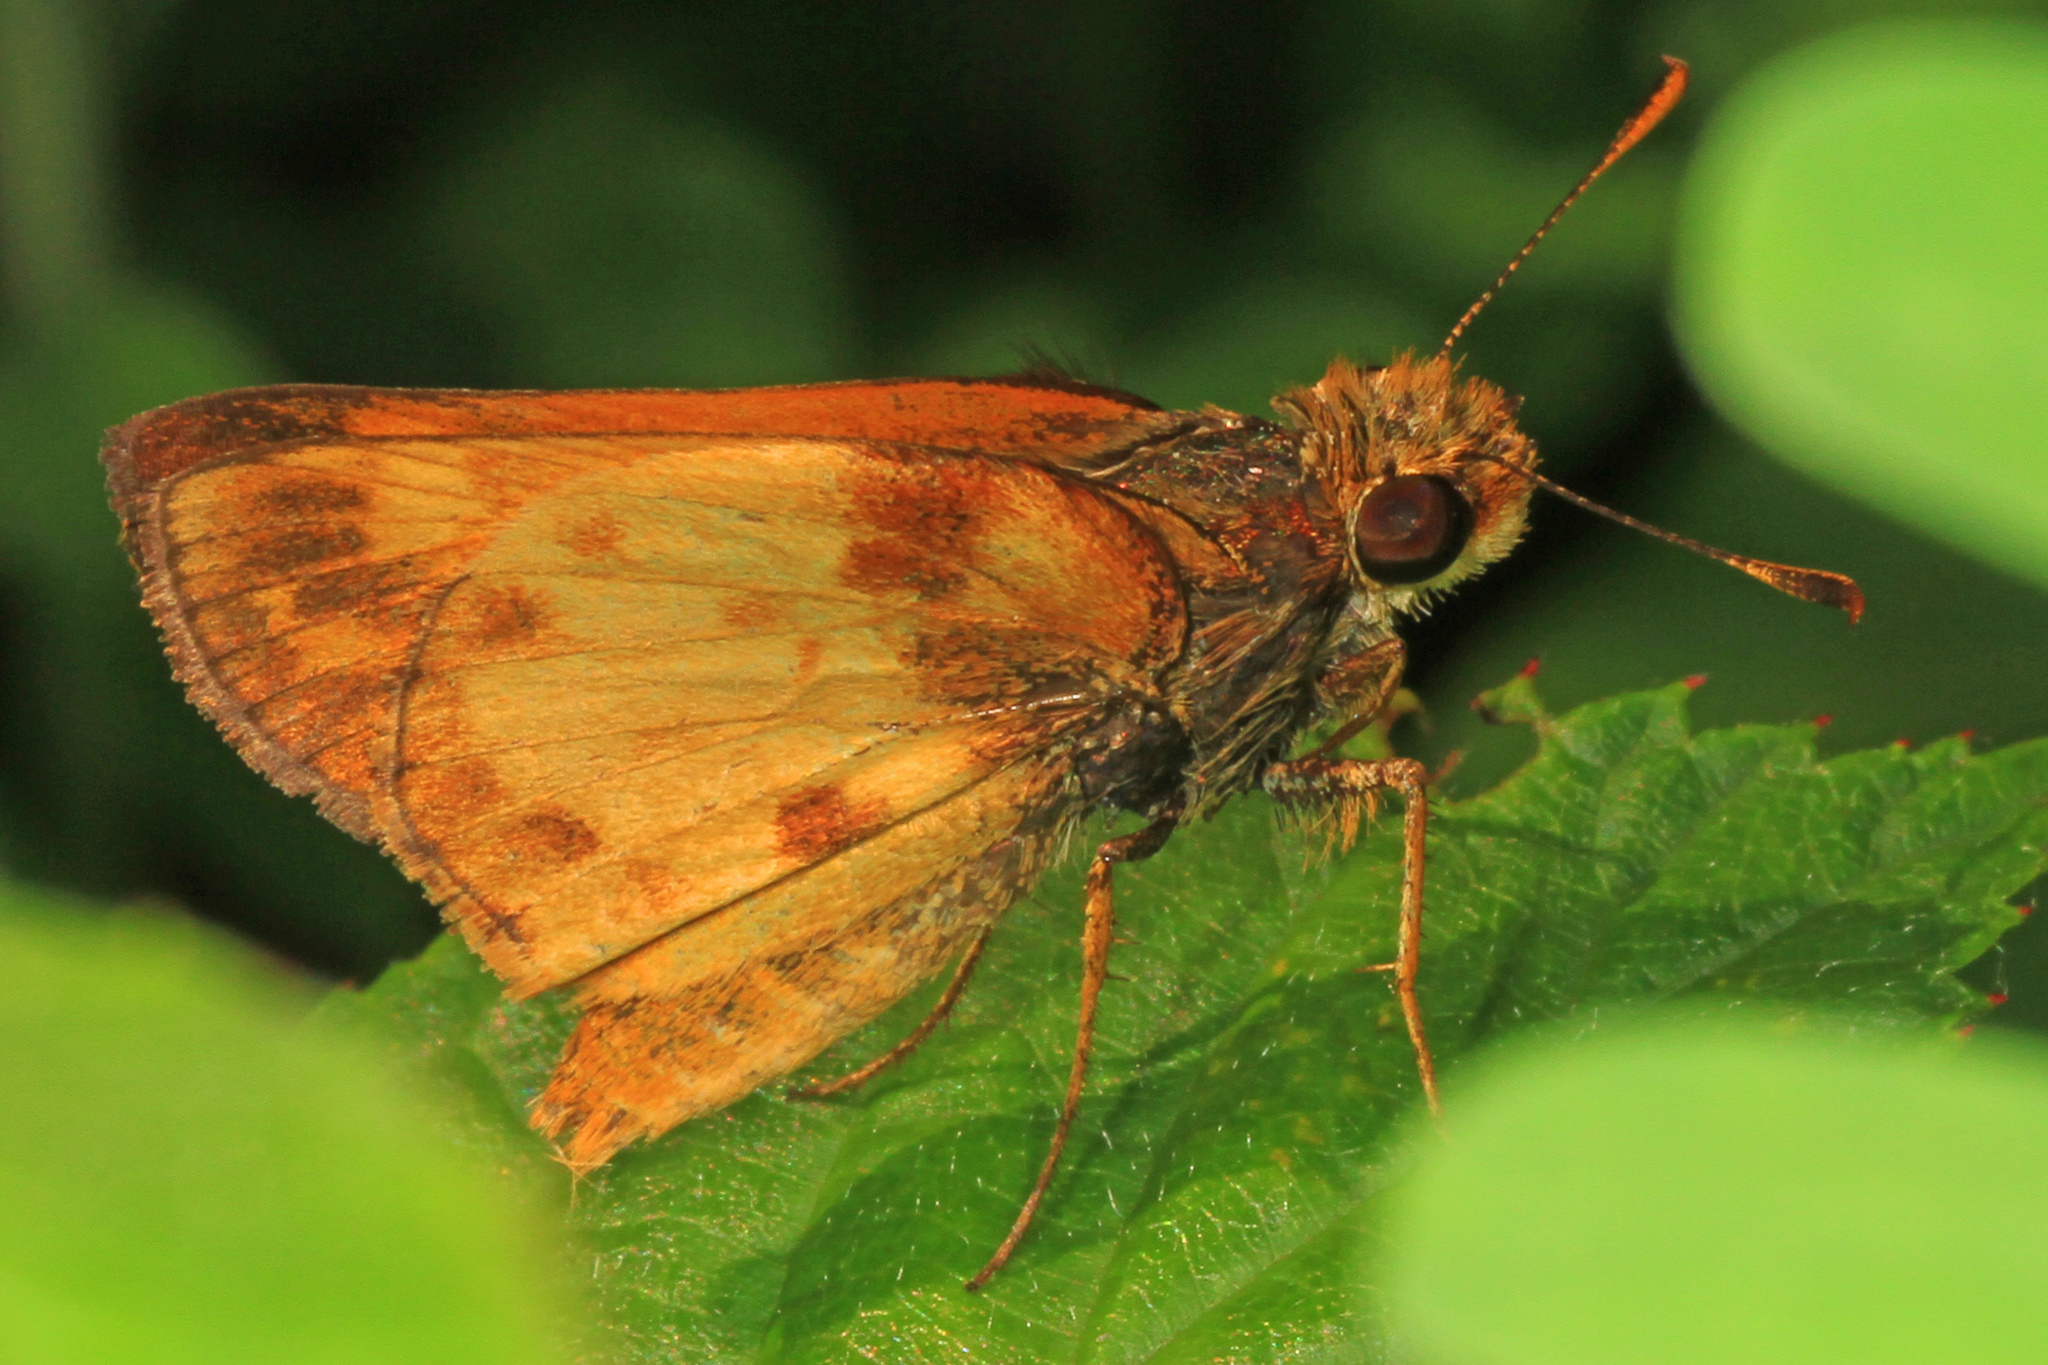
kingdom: Animalia
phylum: Arthropoda
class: Insecta
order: Lepidoptera
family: Hesperiidae
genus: Lon
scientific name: Lon zabulon
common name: Zabulon skipper
